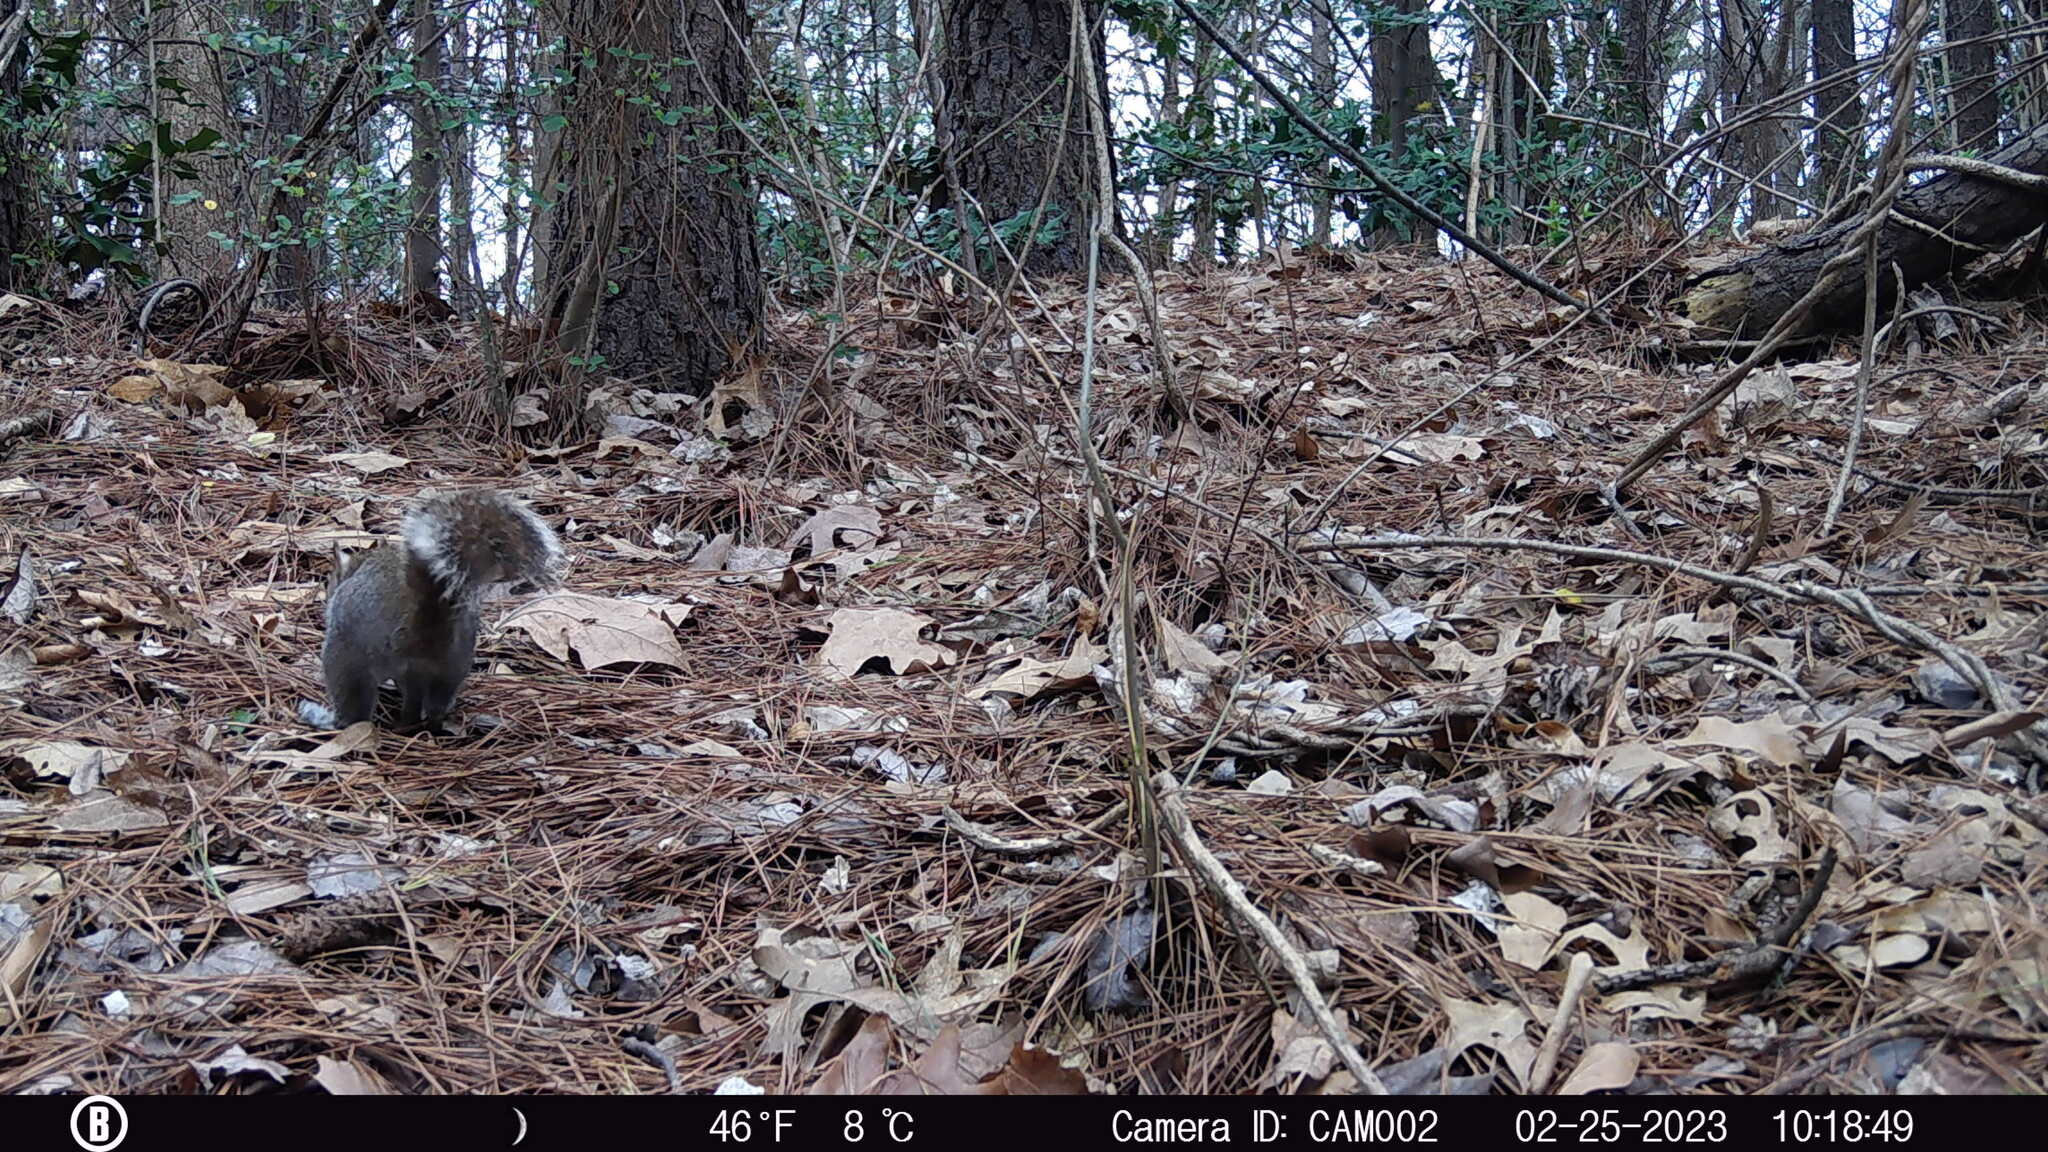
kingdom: Animalia
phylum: Chordata
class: Mammalia
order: Rodentia
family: Sciuridae
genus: Sciurus
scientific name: Sciurus carolinensis
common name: Eastern gray squirrel
